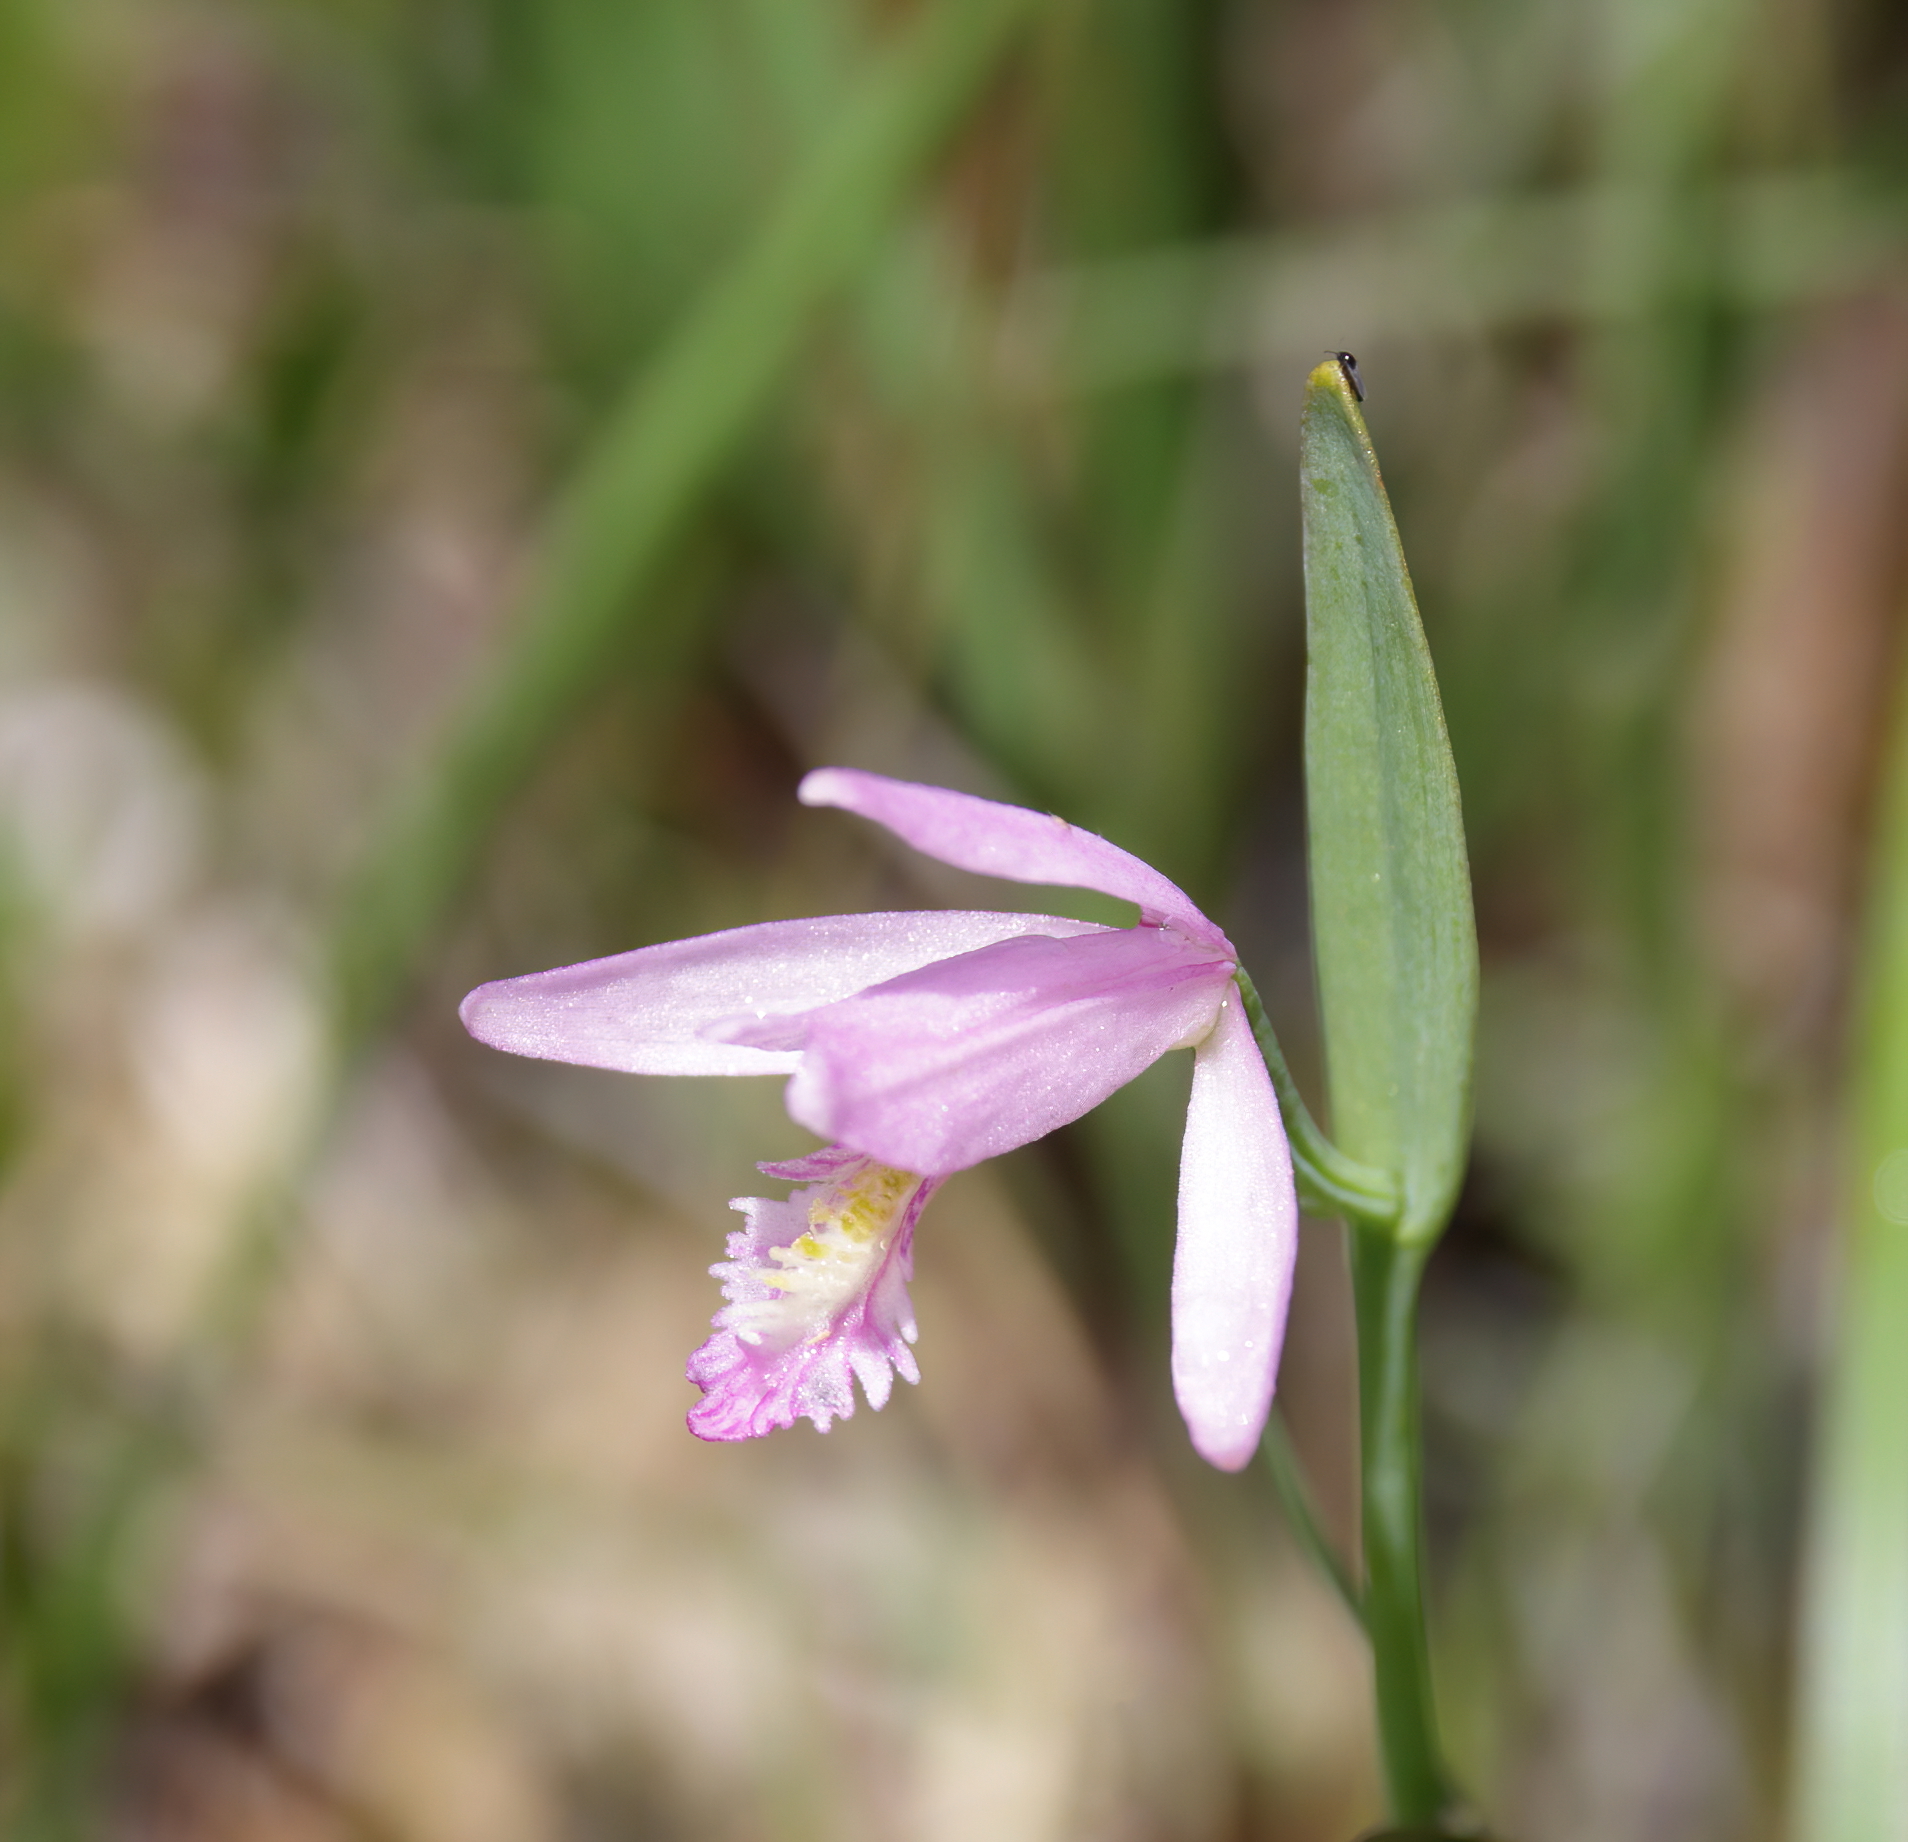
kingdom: Plantae
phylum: Tracheophyta
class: Liliopsida
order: Asparagales
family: Orchidaceae
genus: Pogonia
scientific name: Pogonia ophioglossoides
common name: Rose pogonia
